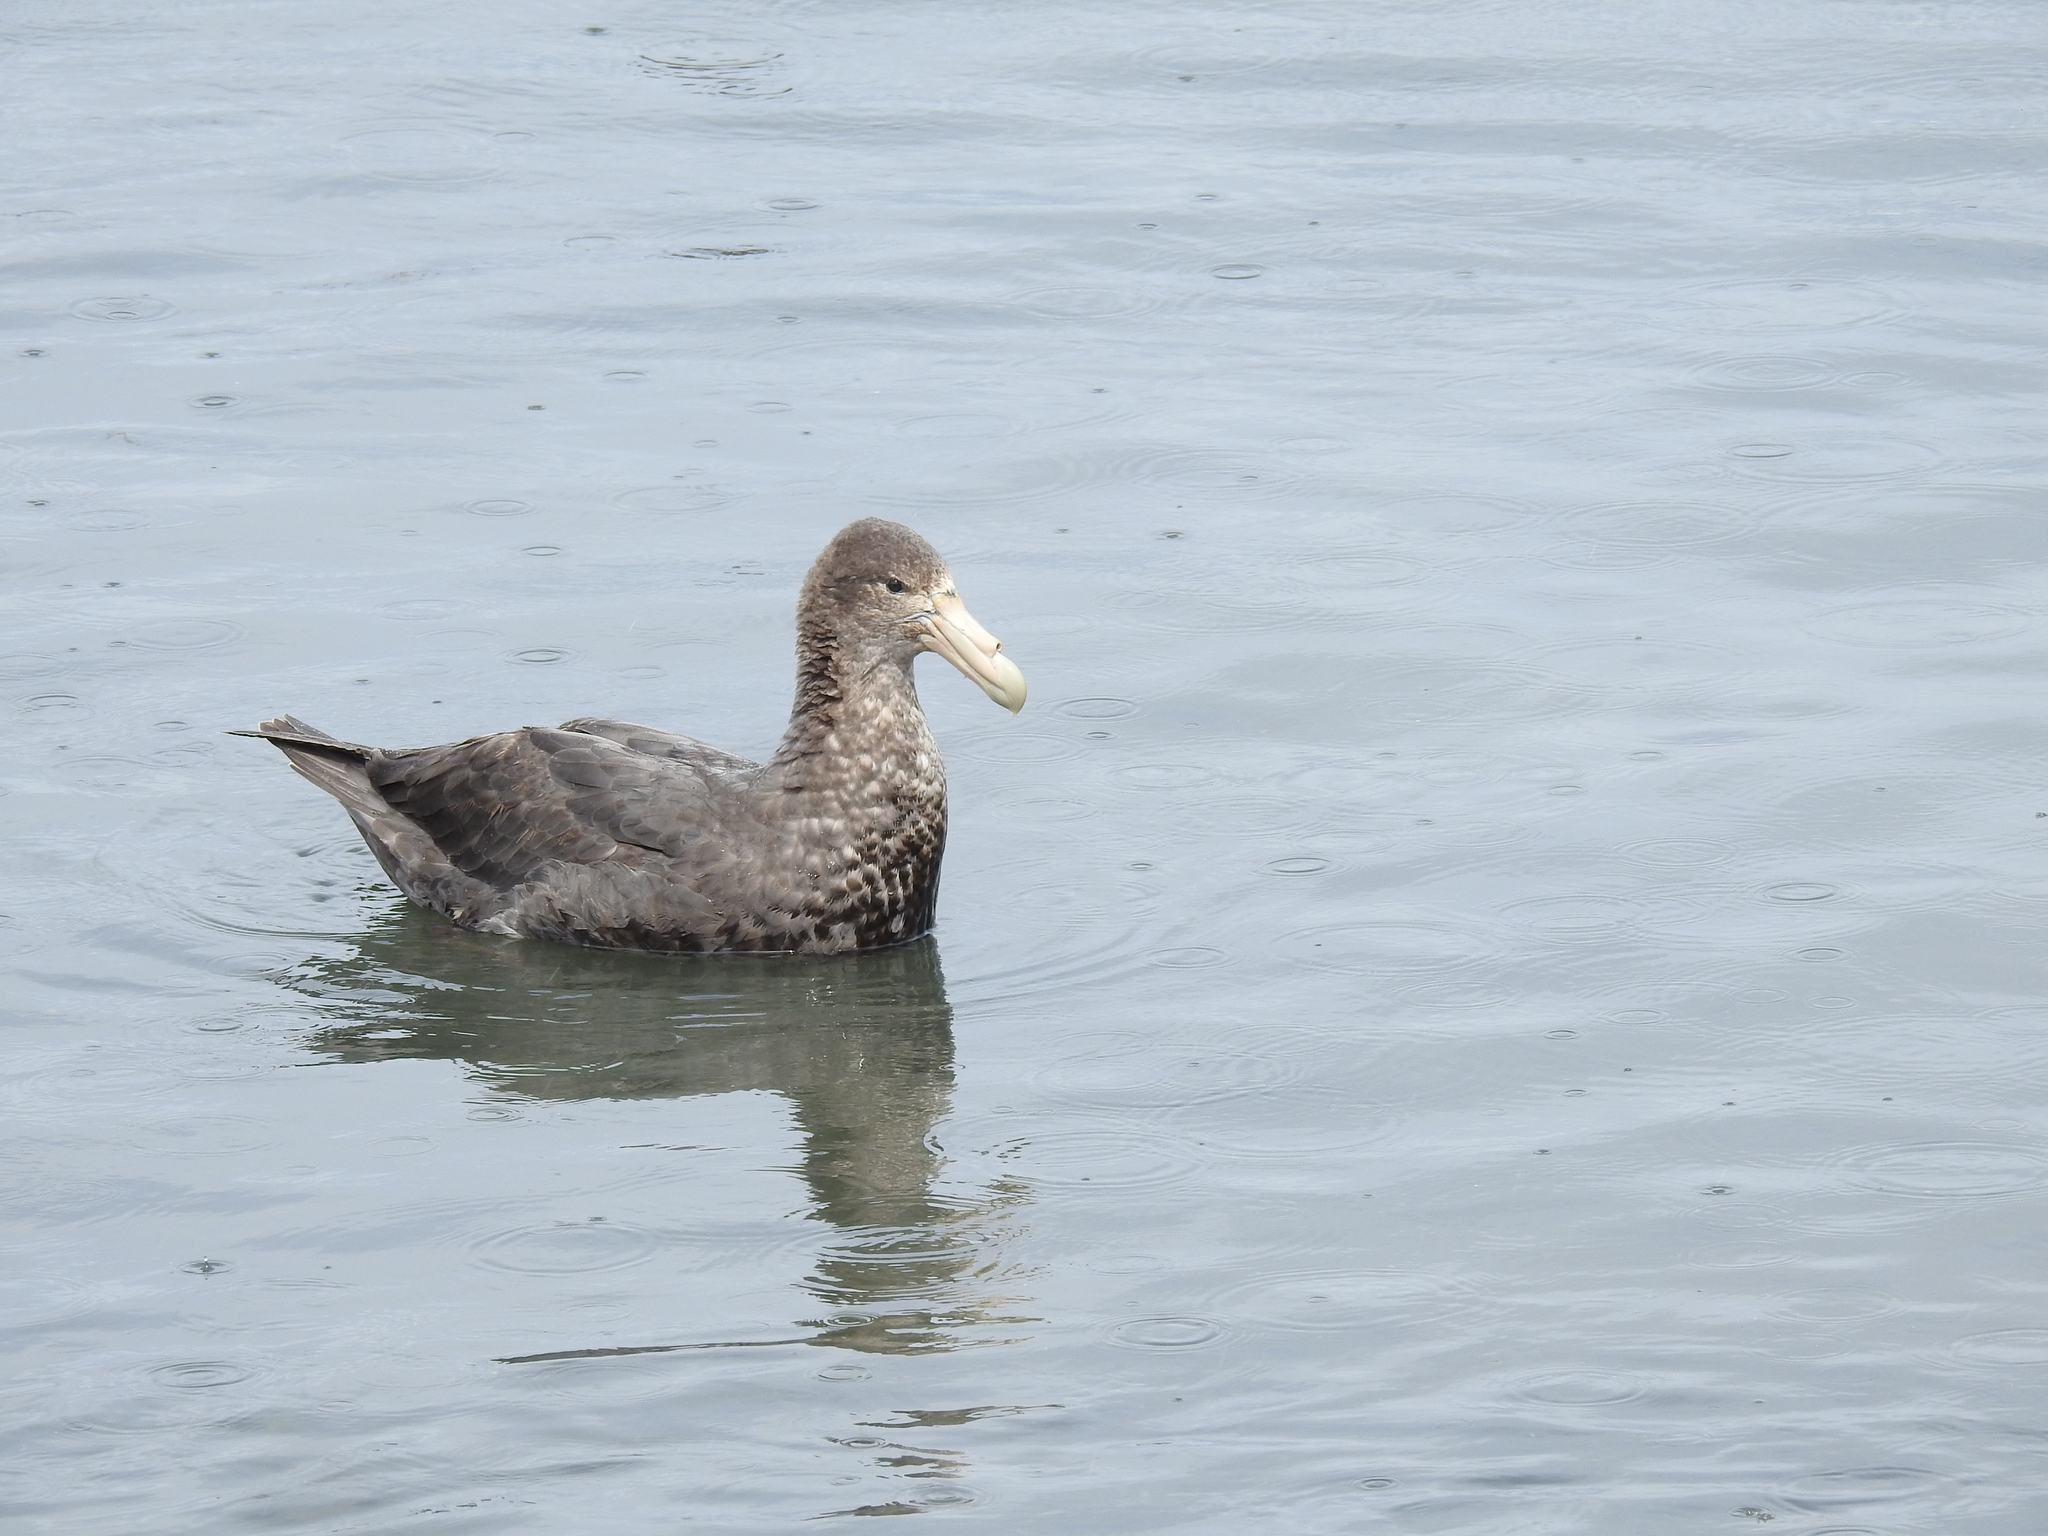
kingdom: Animalia
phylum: Chordata
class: Aves
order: Procellariiformes
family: Procellariidae
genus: Macronectes
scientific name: Macronectes giganteus
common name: Southern giant petrel
